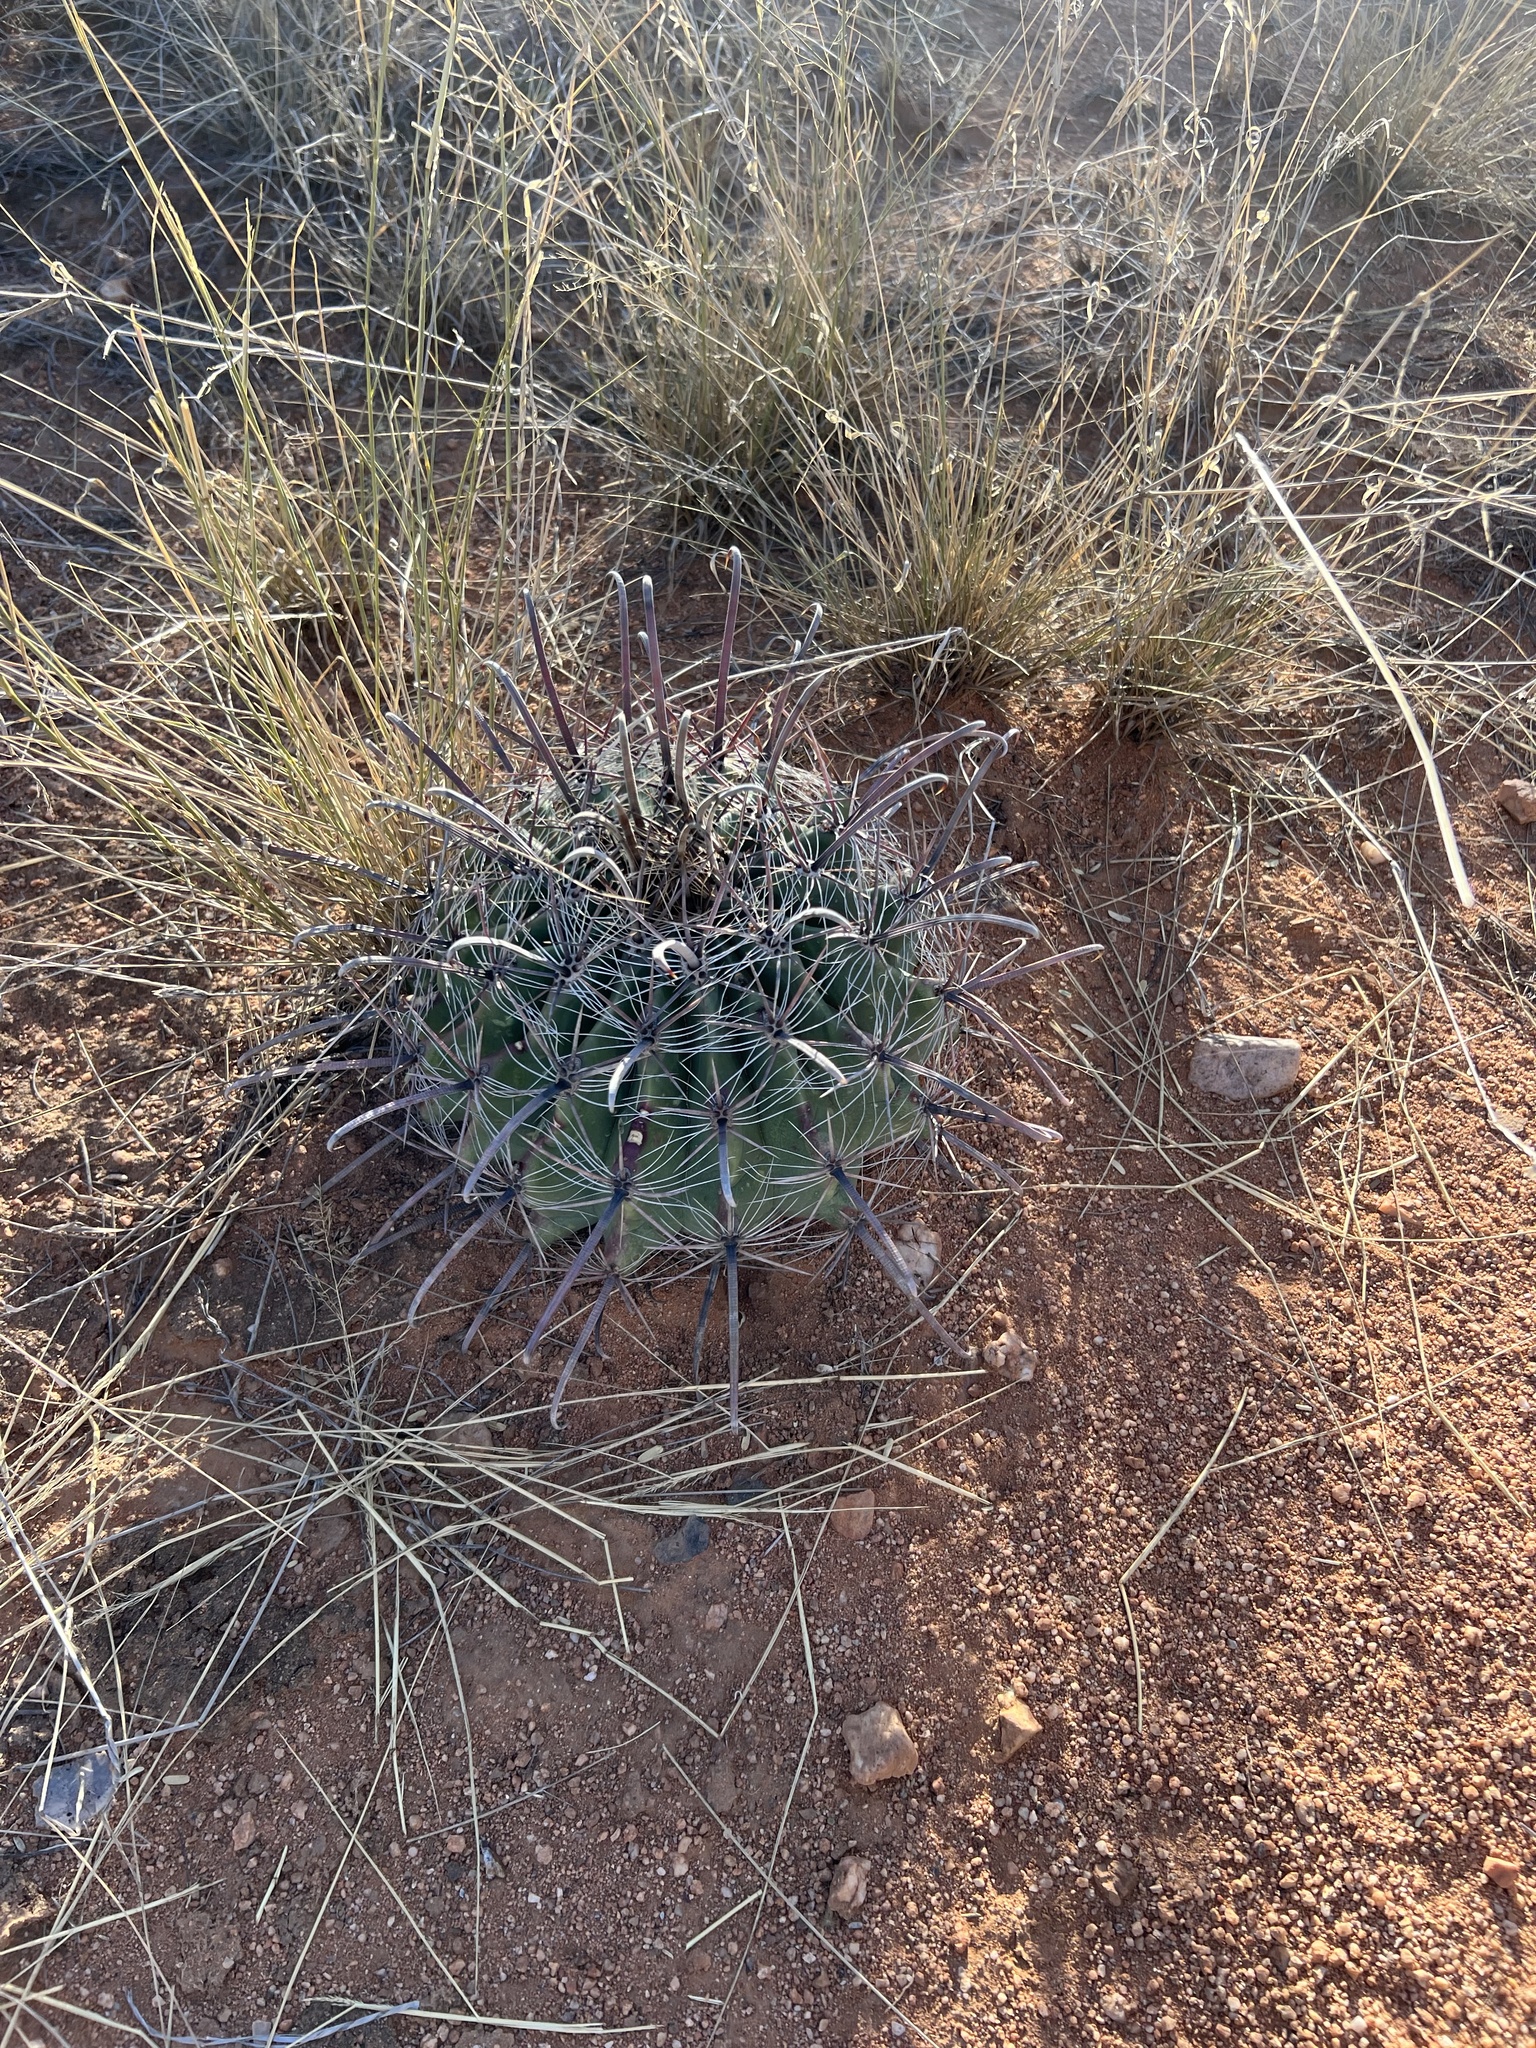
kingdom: Plantae
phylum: Tracheophyta
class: Magnoliopsida
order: Caryophyllales
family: Cactaceae
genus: Ferocactus
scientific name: Ferocactus wislizeni
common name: Candy barrel cactus
